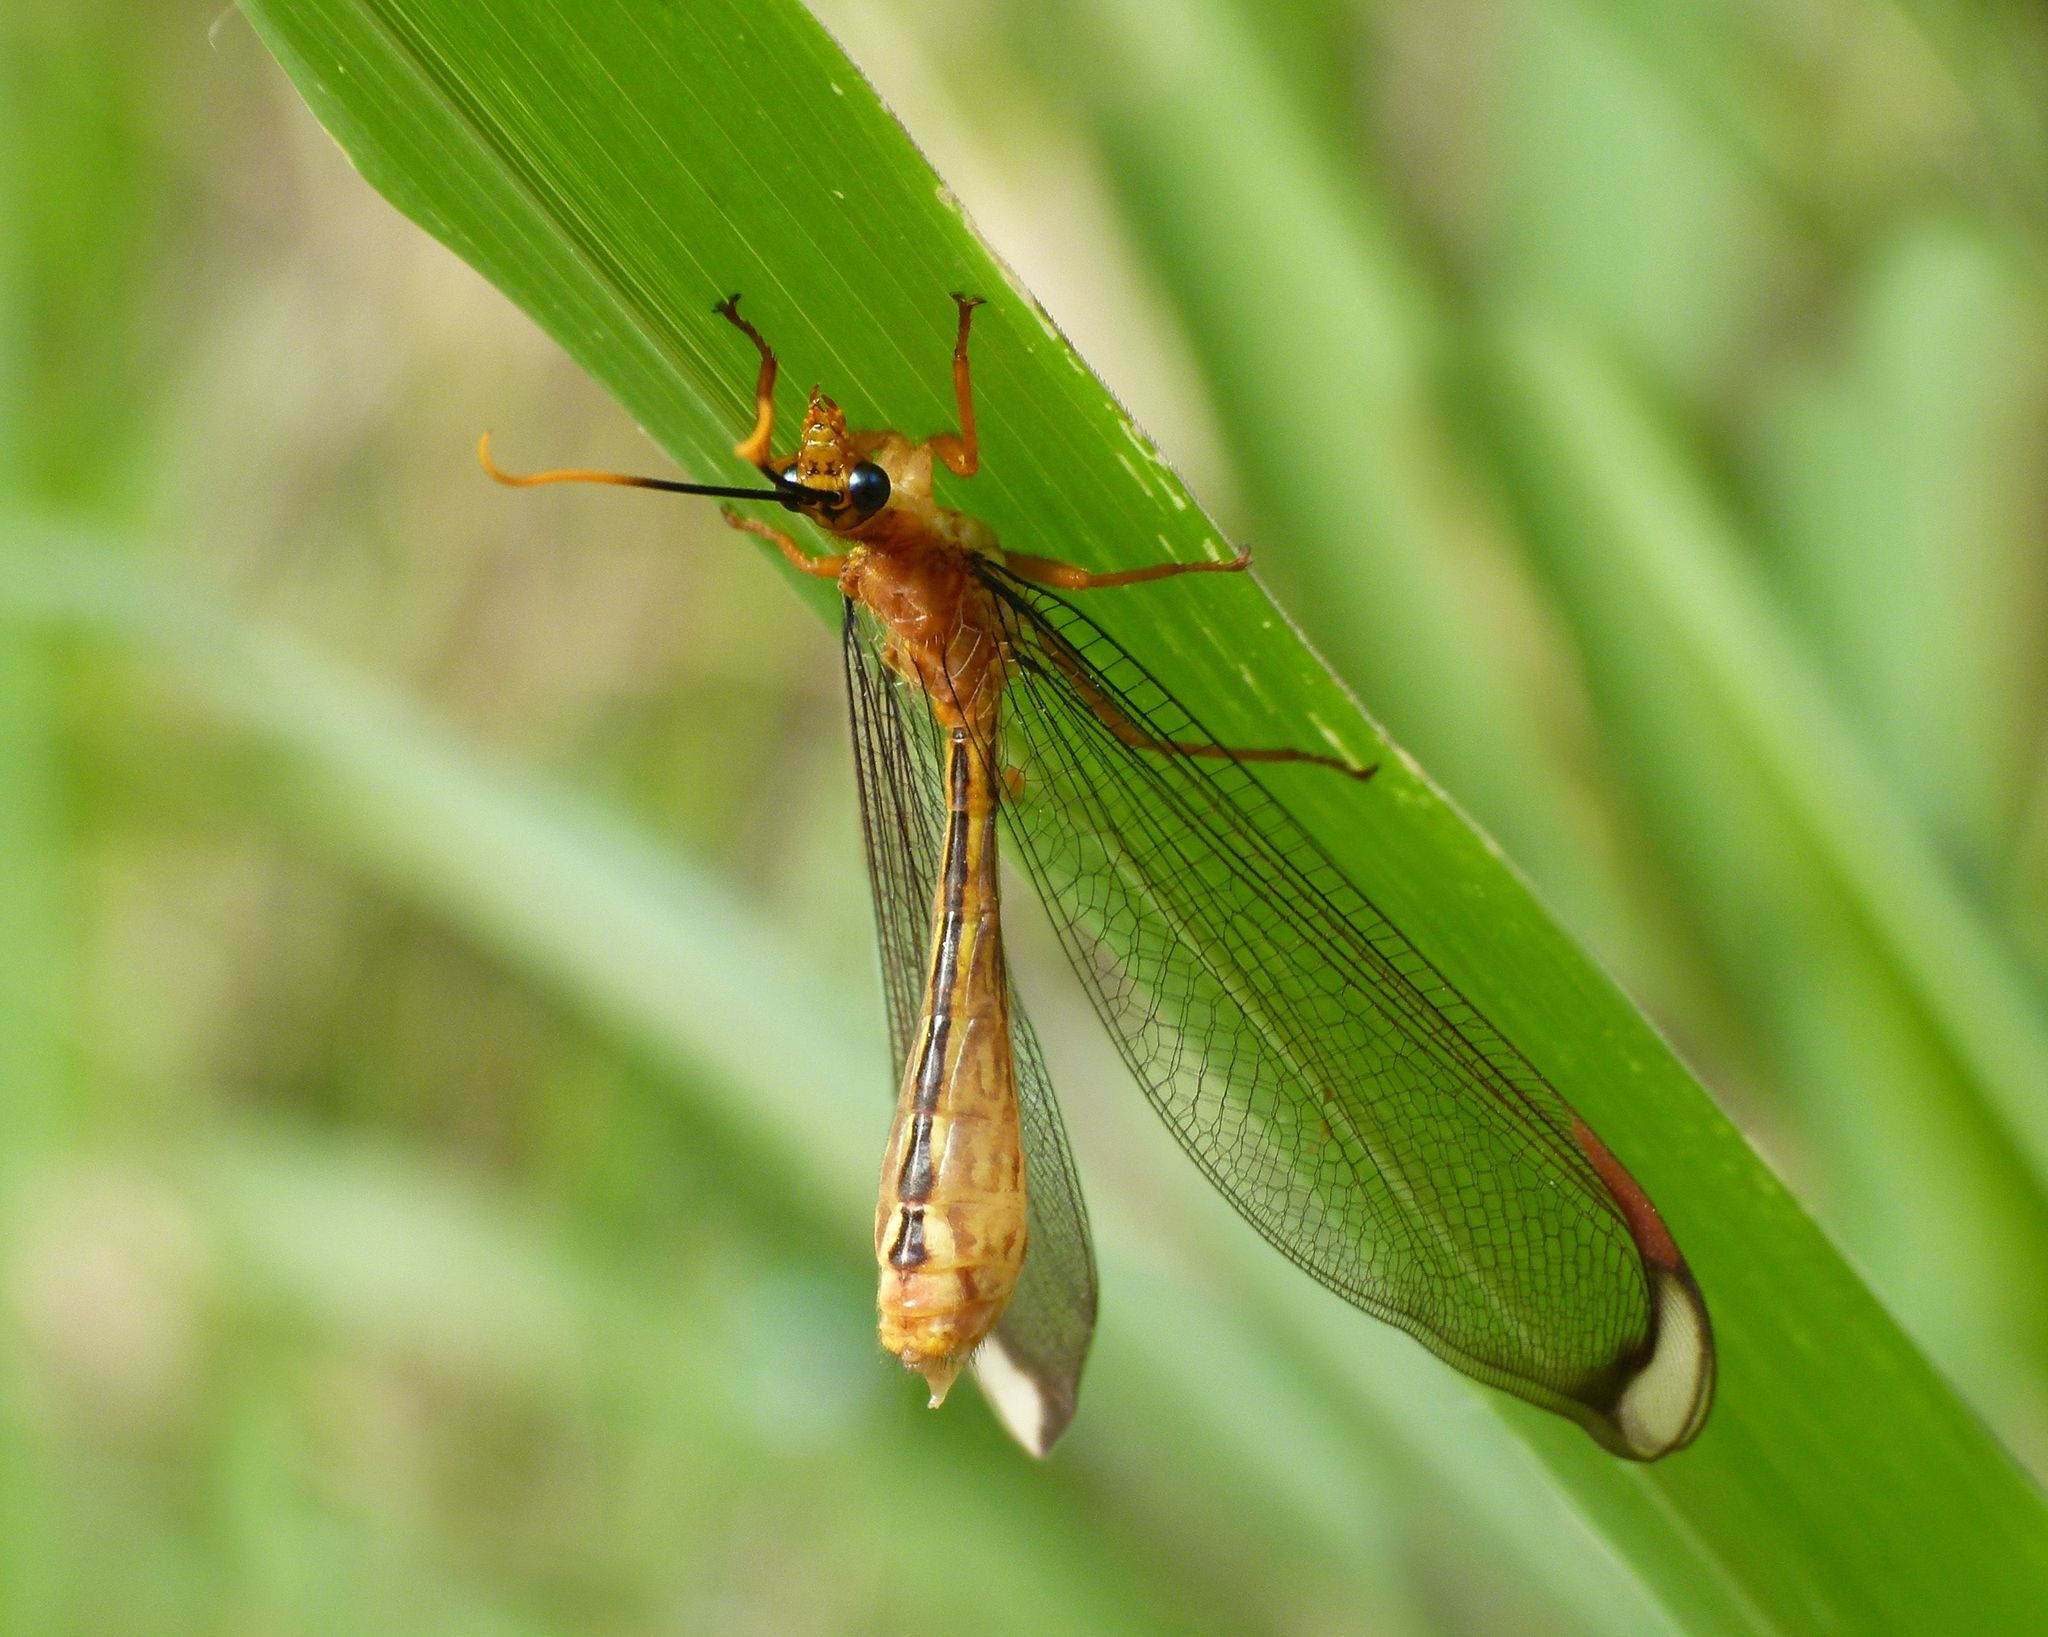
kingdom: Animalia
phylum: Arthropoda
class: Insecta
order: Neuroptera
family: Nymphidae
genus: Nymphes
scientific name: Nymphes myrmeleonoides
